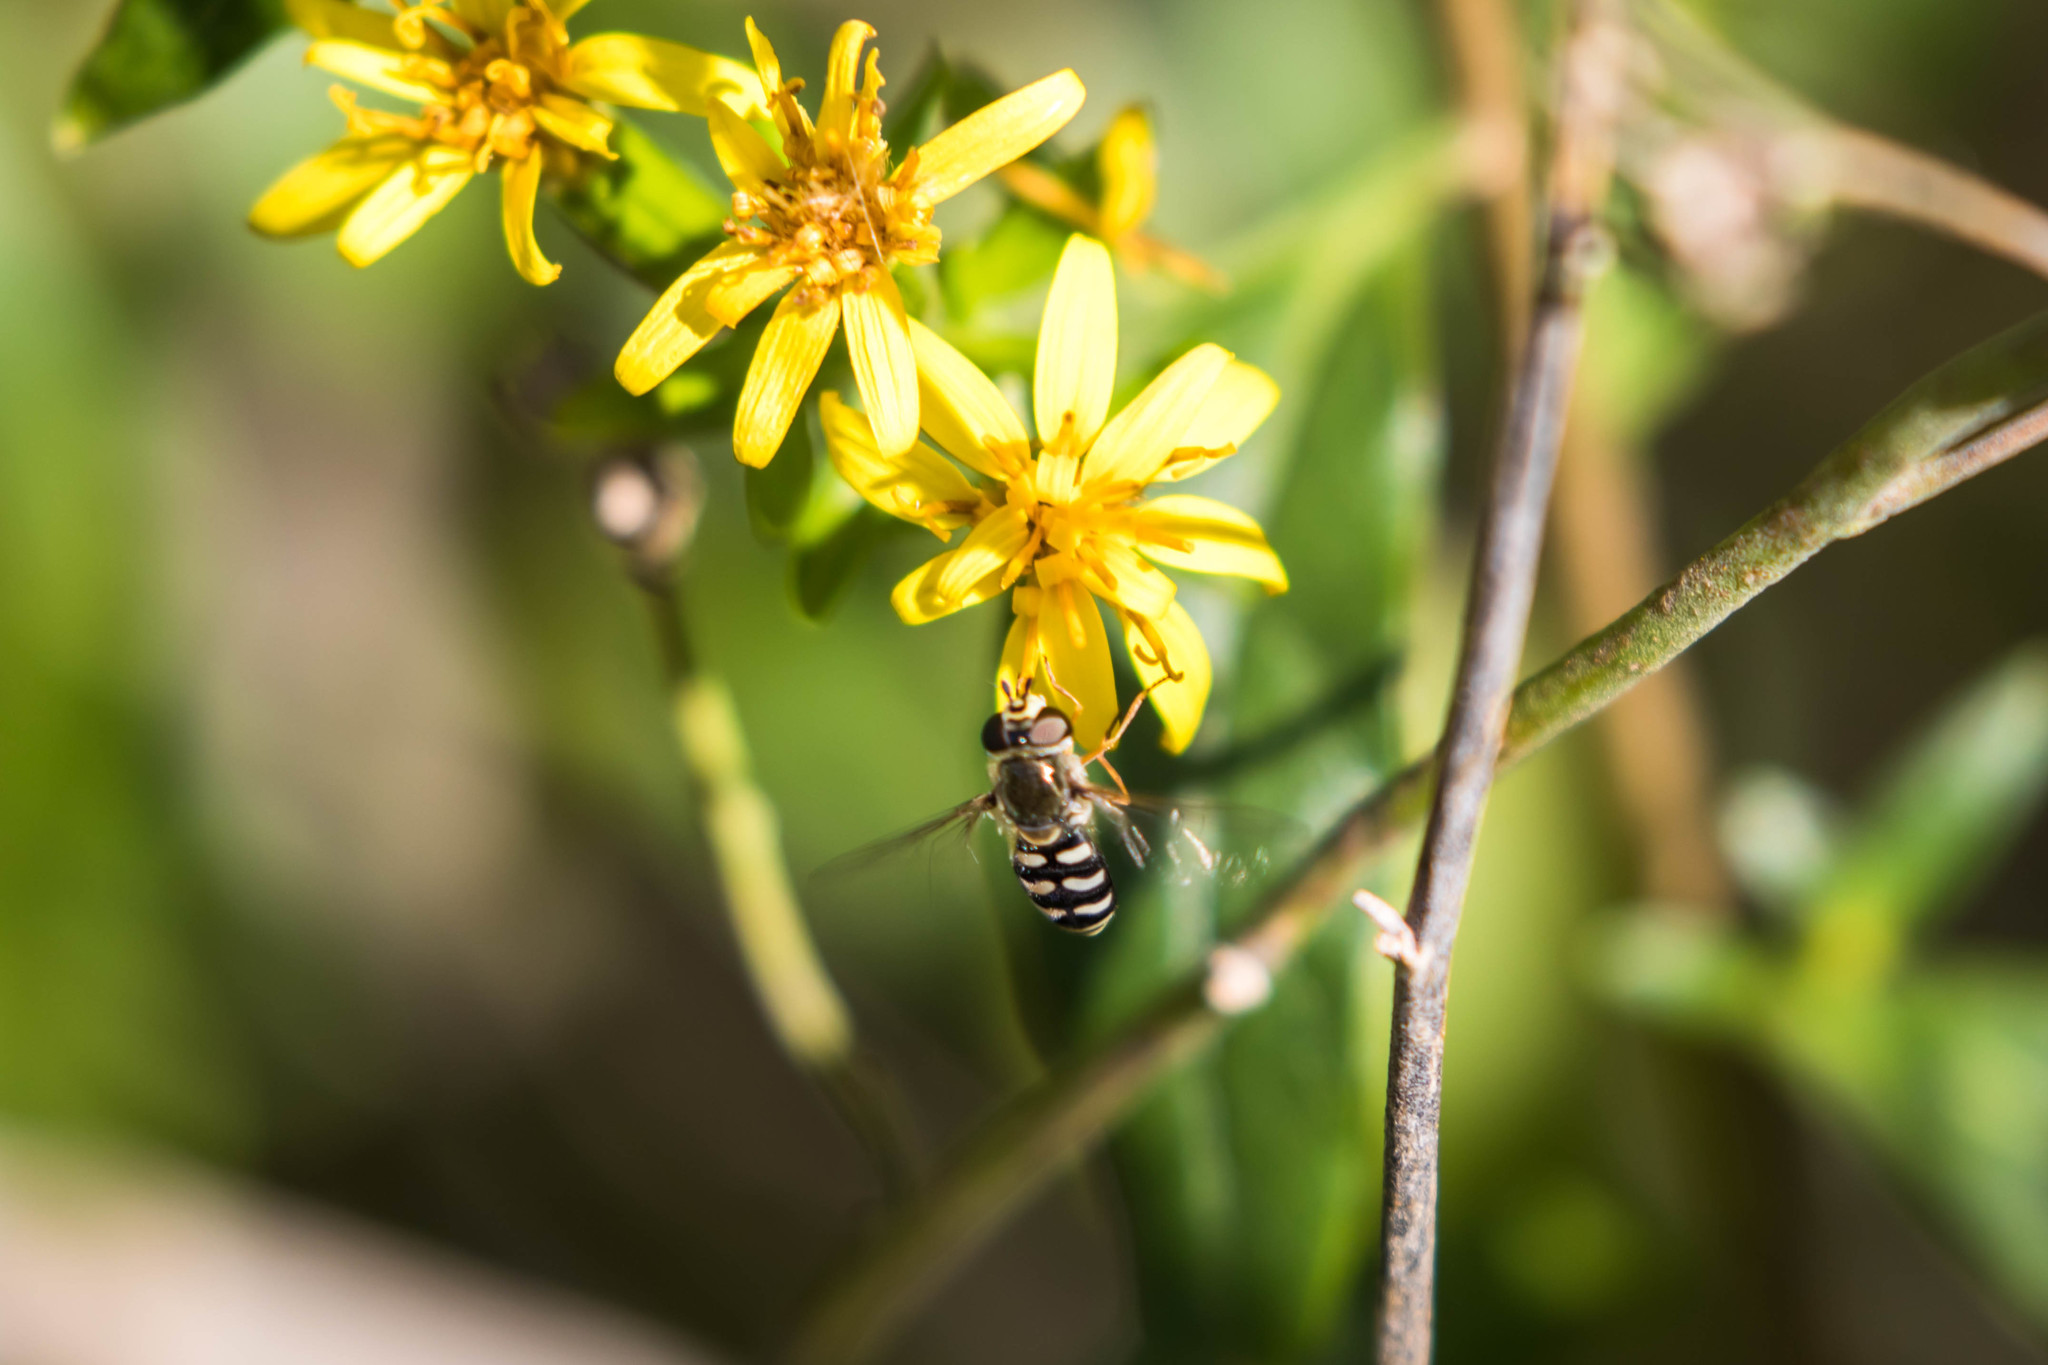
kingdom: Animalia
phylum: Arthropoda
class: Insecta
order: Diptera
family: Syrphidae
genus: Eupeodes
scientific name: Eupeodes volucris
